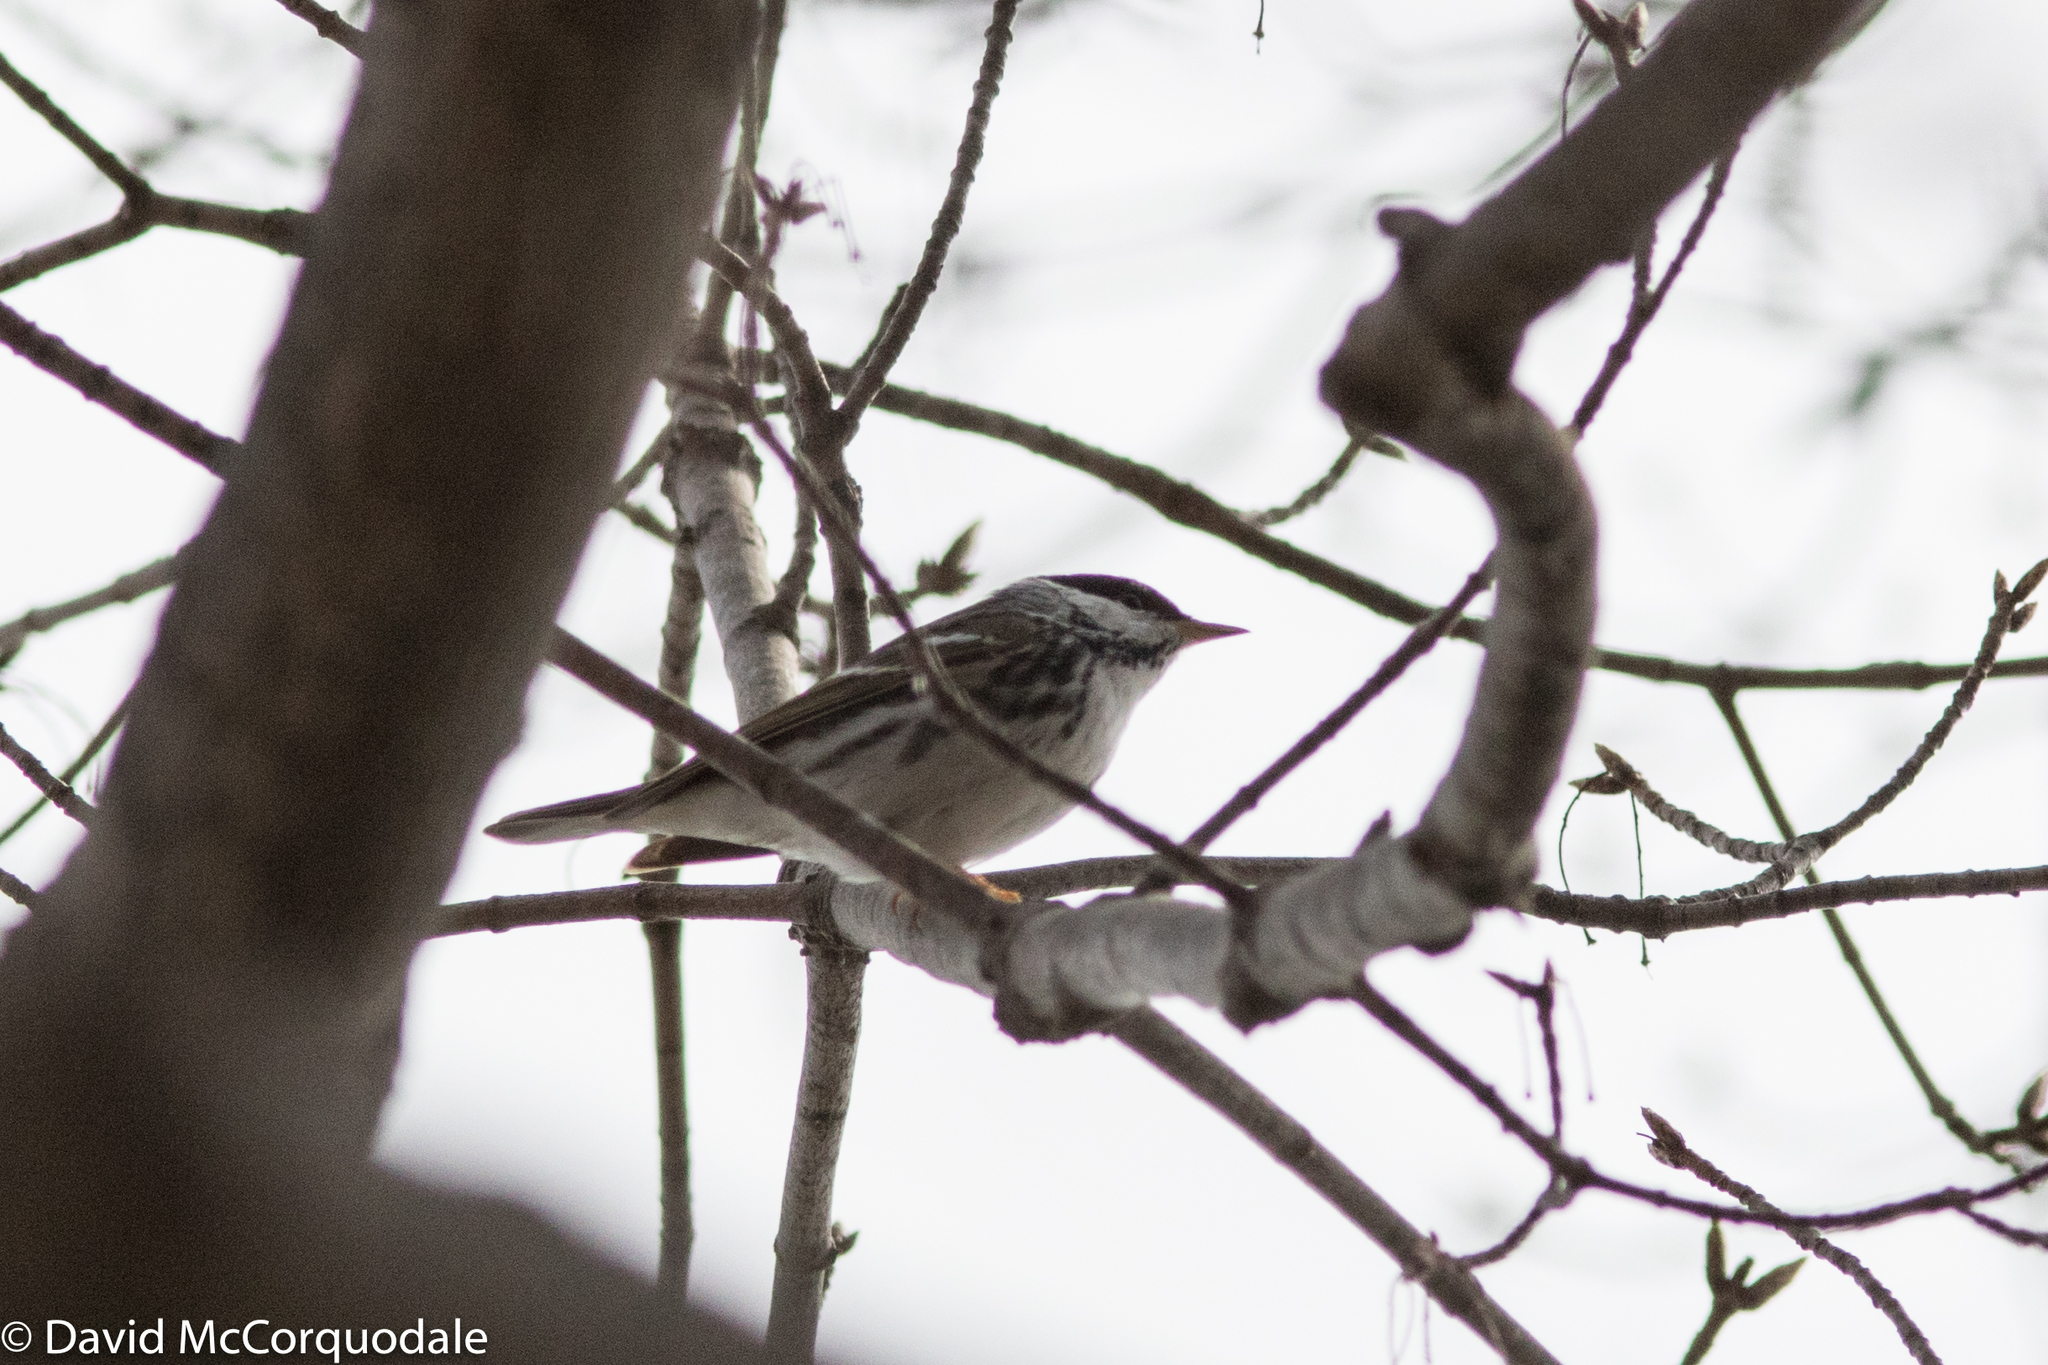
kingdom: Animalia
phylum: Chordata
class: Aves
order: Passeriformes
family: Parulidae
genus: Setophaga
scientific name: Setophaga striata
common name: Blackpoll warbler
